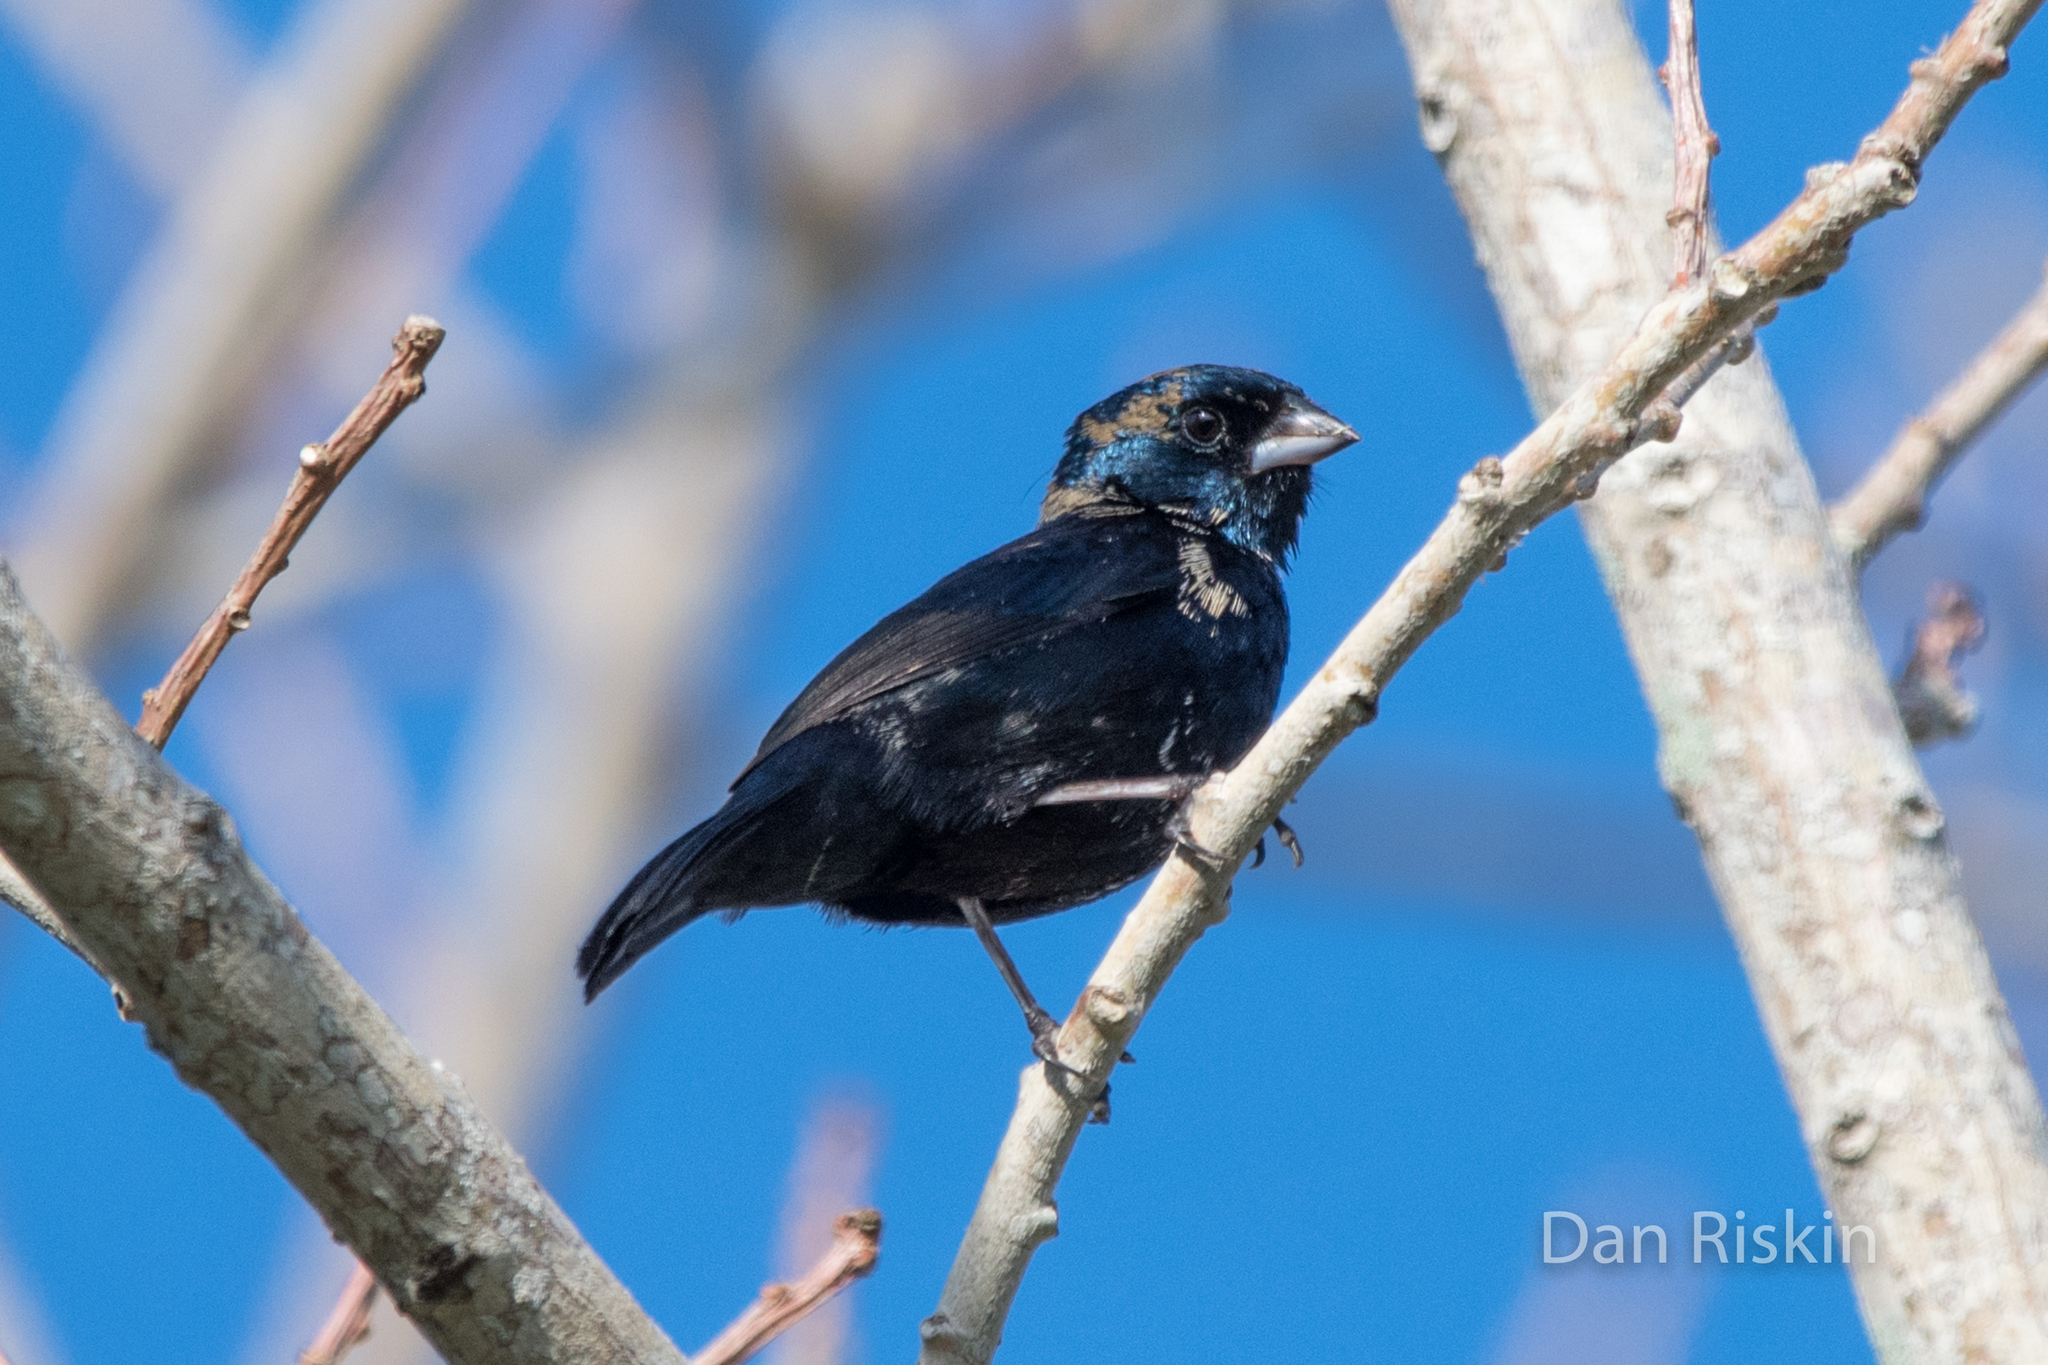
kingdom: Animalia
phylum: Chordata
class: Aves
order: Passeriformes
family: Thraupidae
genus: Volatinia
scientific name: Volatinia jacarina
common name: Blue-black grassquit
